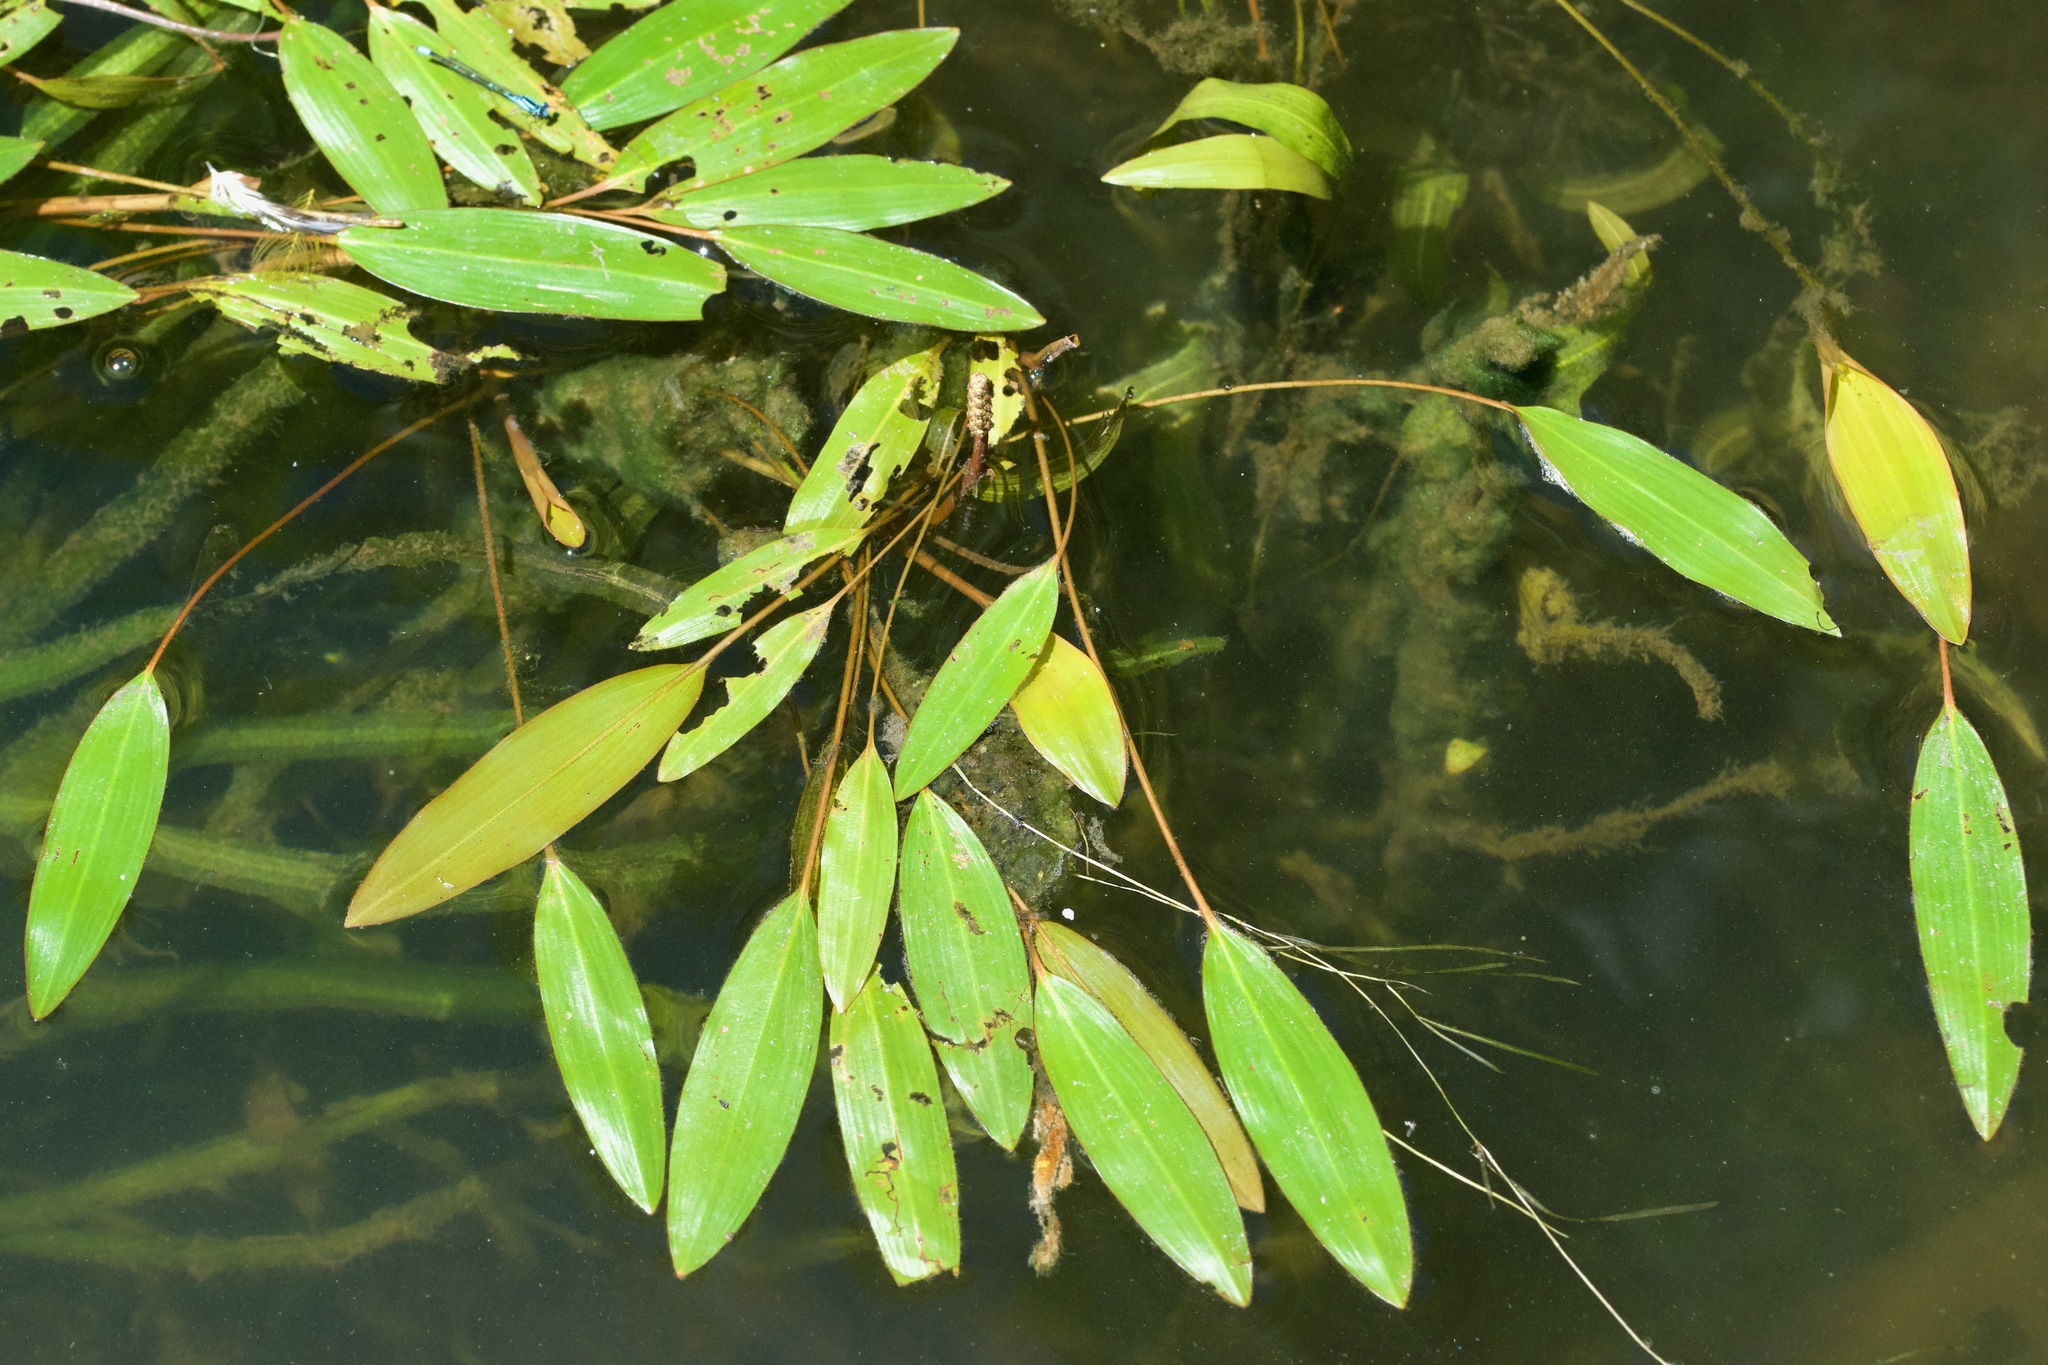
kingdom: Plantae
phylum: Tracheophyta
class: Liliopsida
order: Alismatales
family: Potamogetonaceae
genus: Potamogeton
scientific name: Potamogeton nodosus
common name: Loddon pondweed
